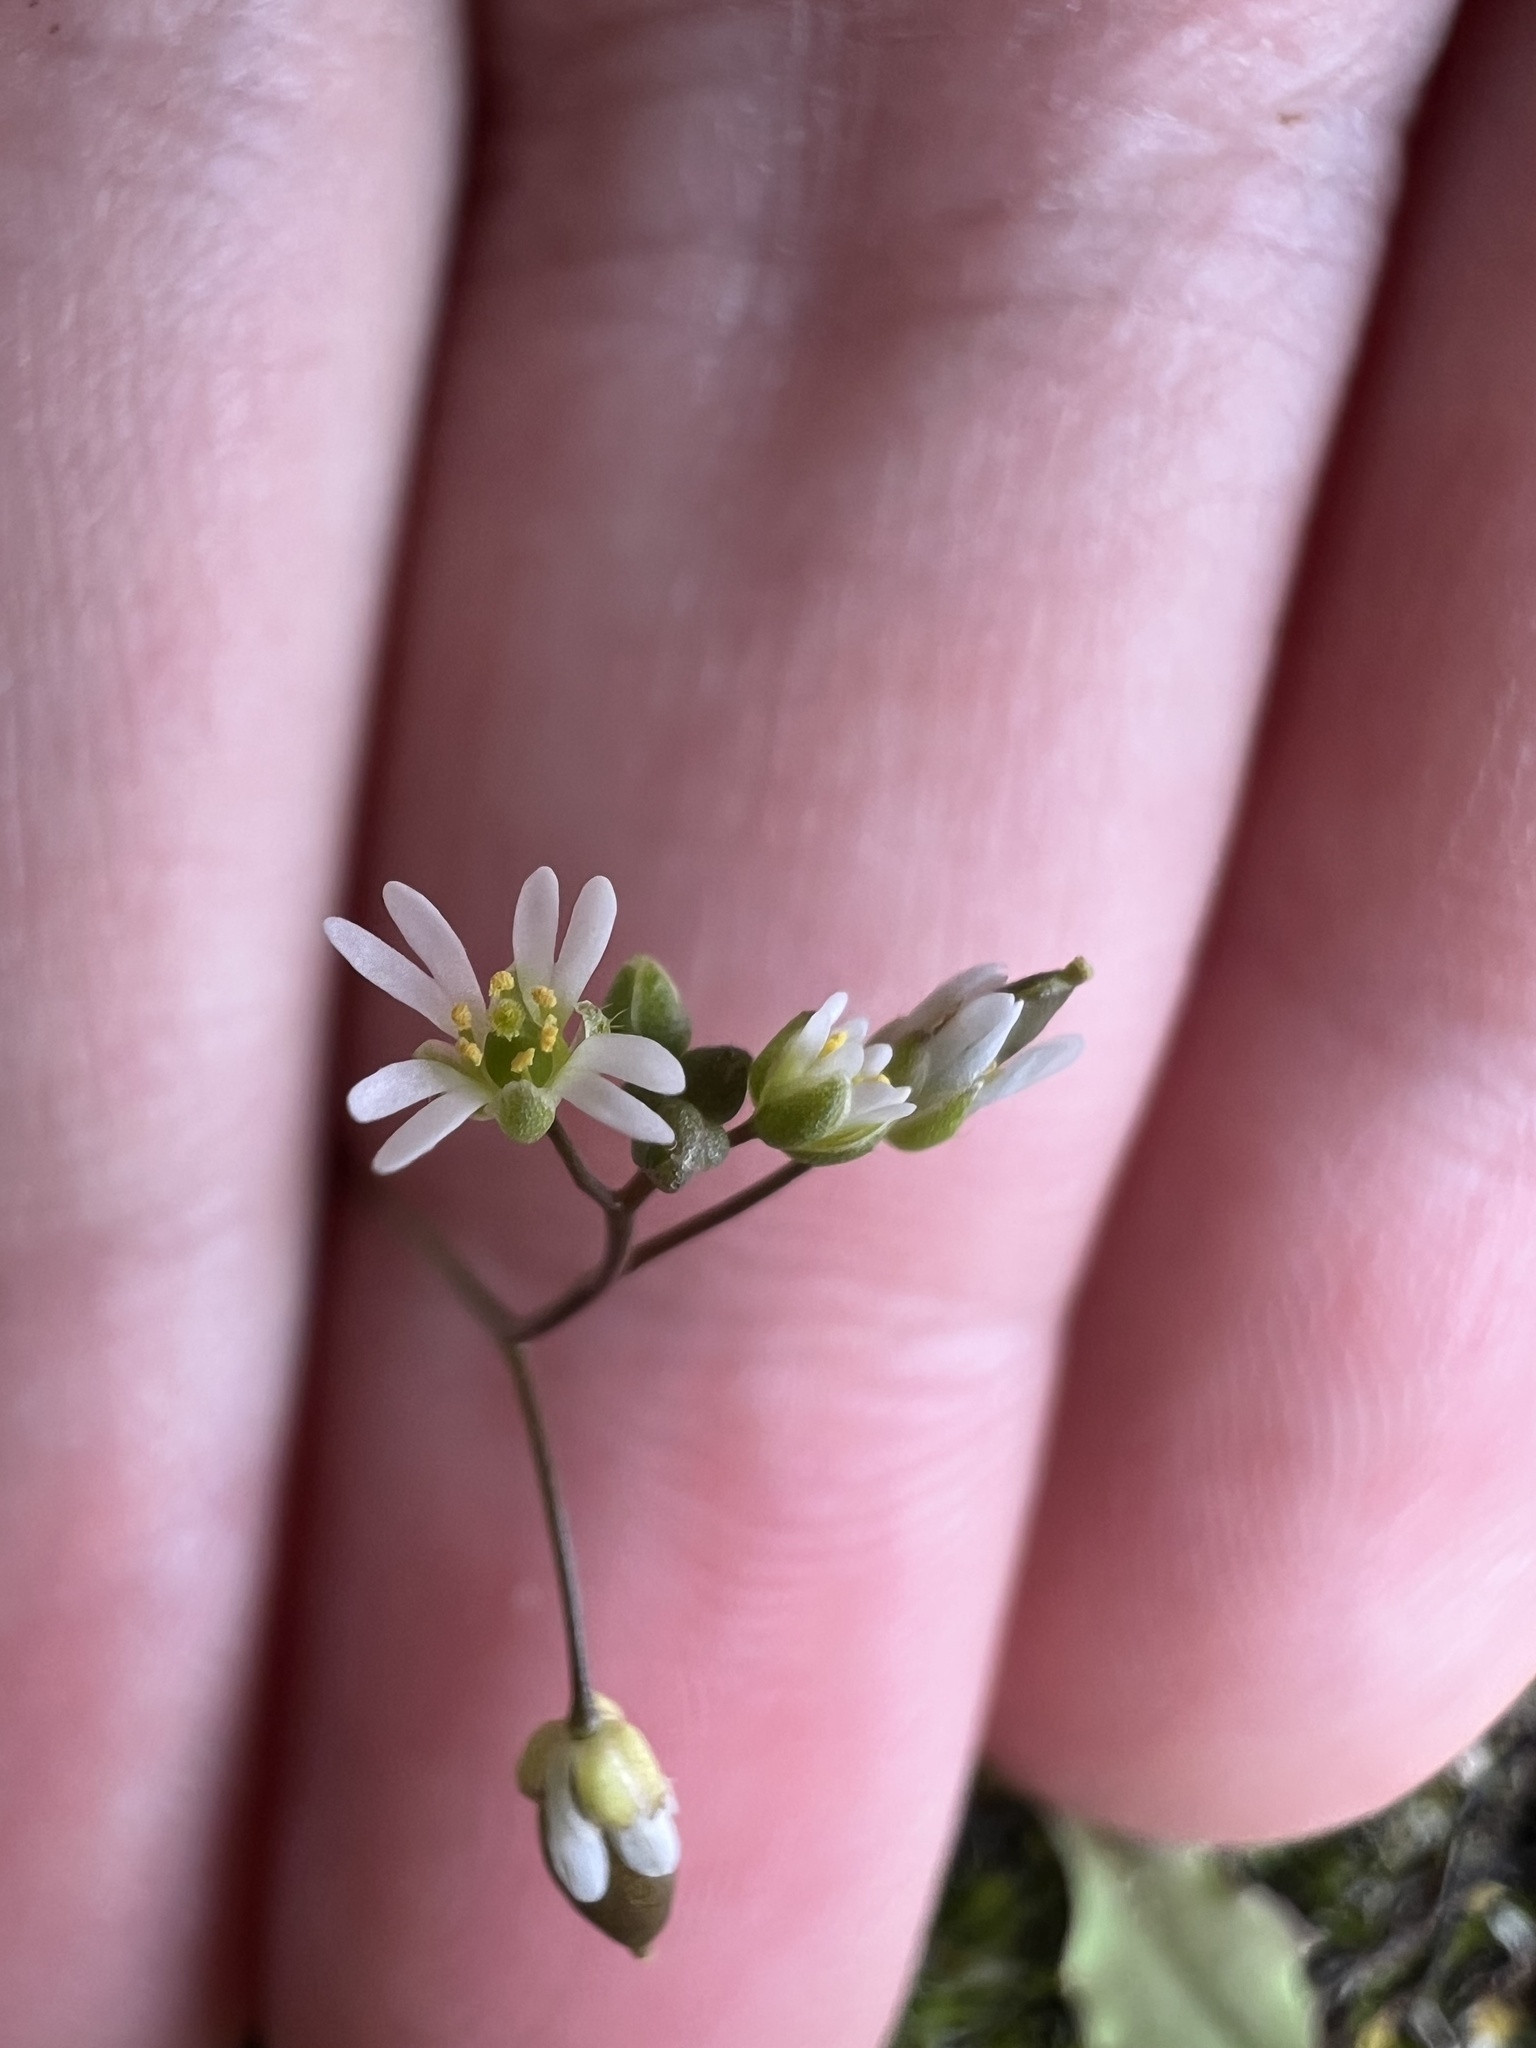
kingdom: Plantae
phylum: Tracheophyta
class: Magnoliopsida
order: Brassicales
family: Brassicaceae
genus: Draba
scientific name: Draba verna
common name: Spring draba
